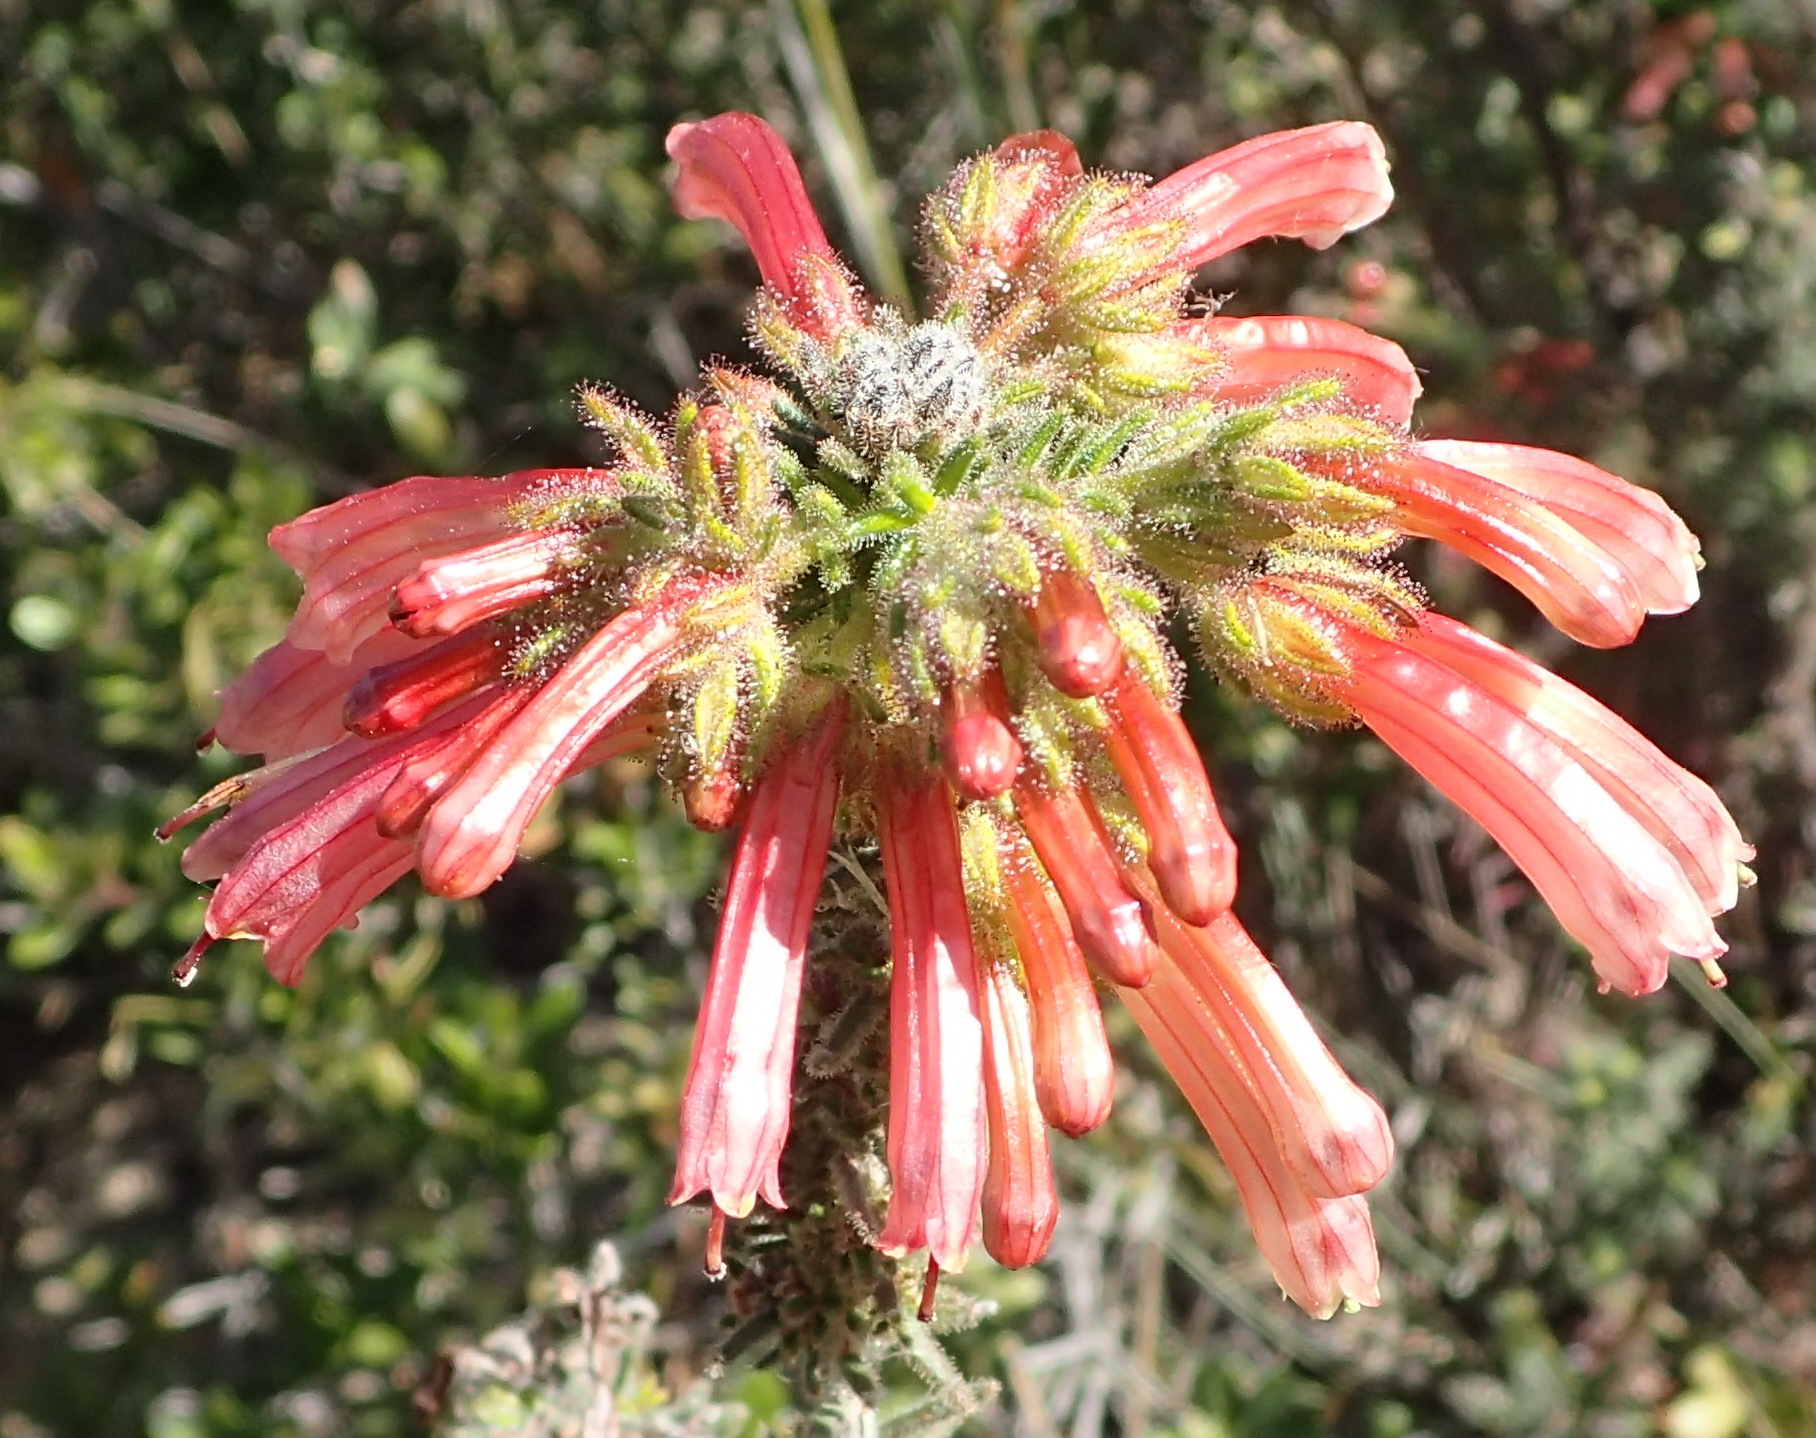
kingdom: Plantae
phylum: Tracheophyta
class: Magnoliopsida
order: Ericales
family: Ericaceae
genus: Erica
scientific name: Erica glandulosa
